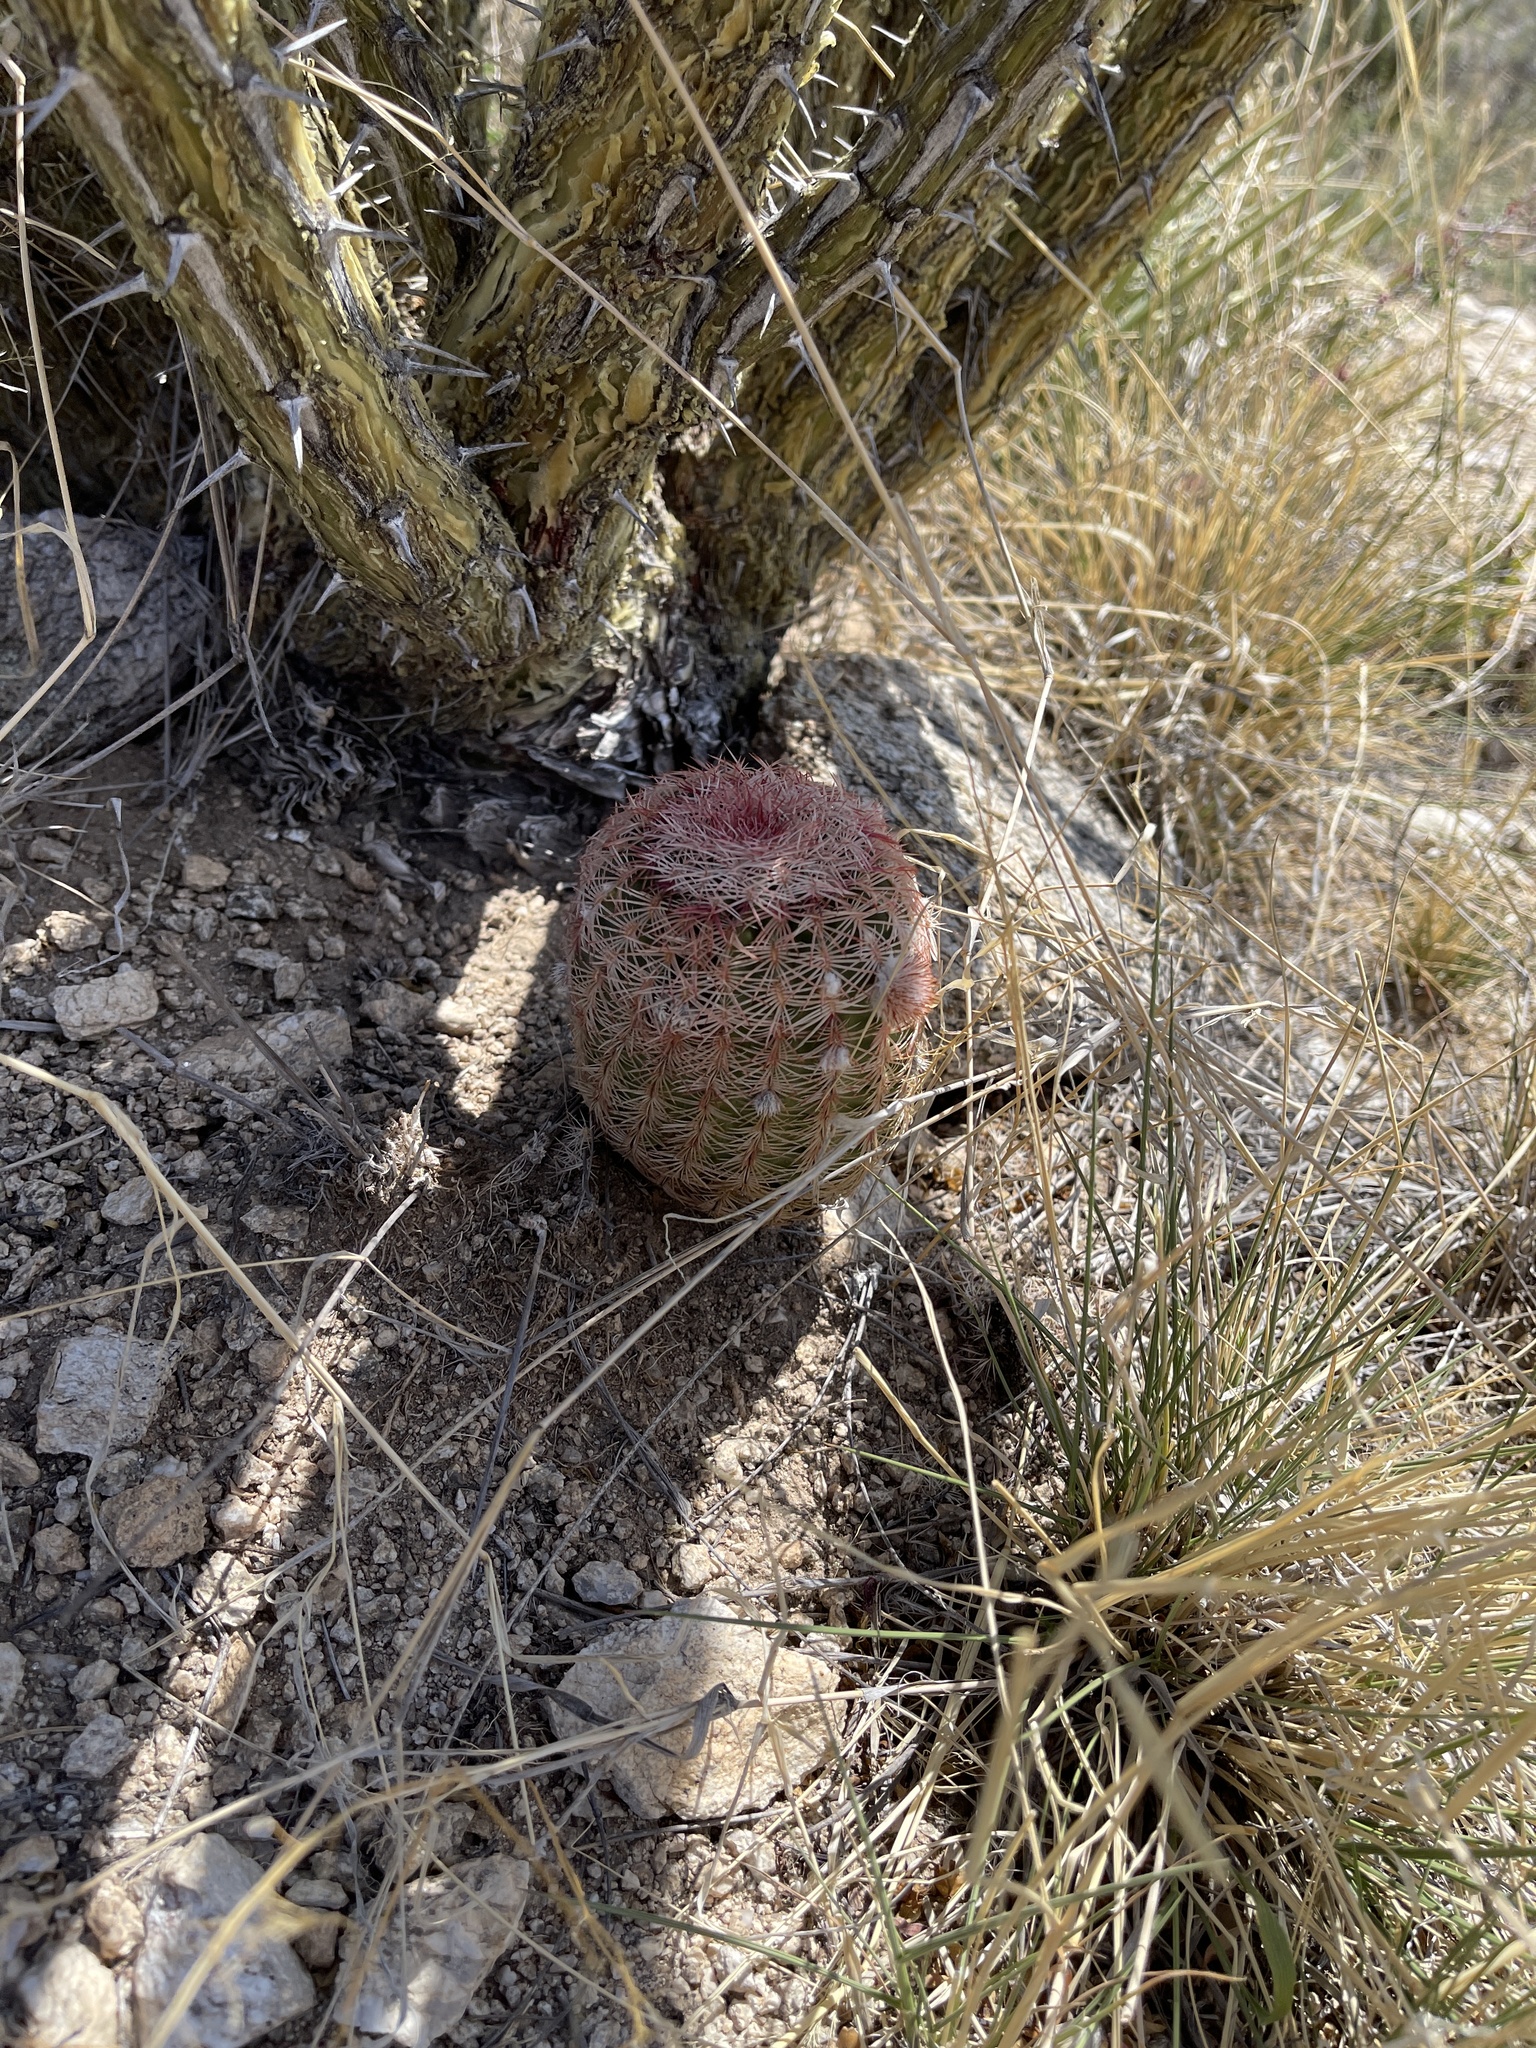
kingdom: Plantae
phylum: Tracheophyta
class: Magnoliopsida
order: Caryophyllales
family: Cactaceae
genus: Echinocereus
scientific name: Echinocereus rigidissimus
